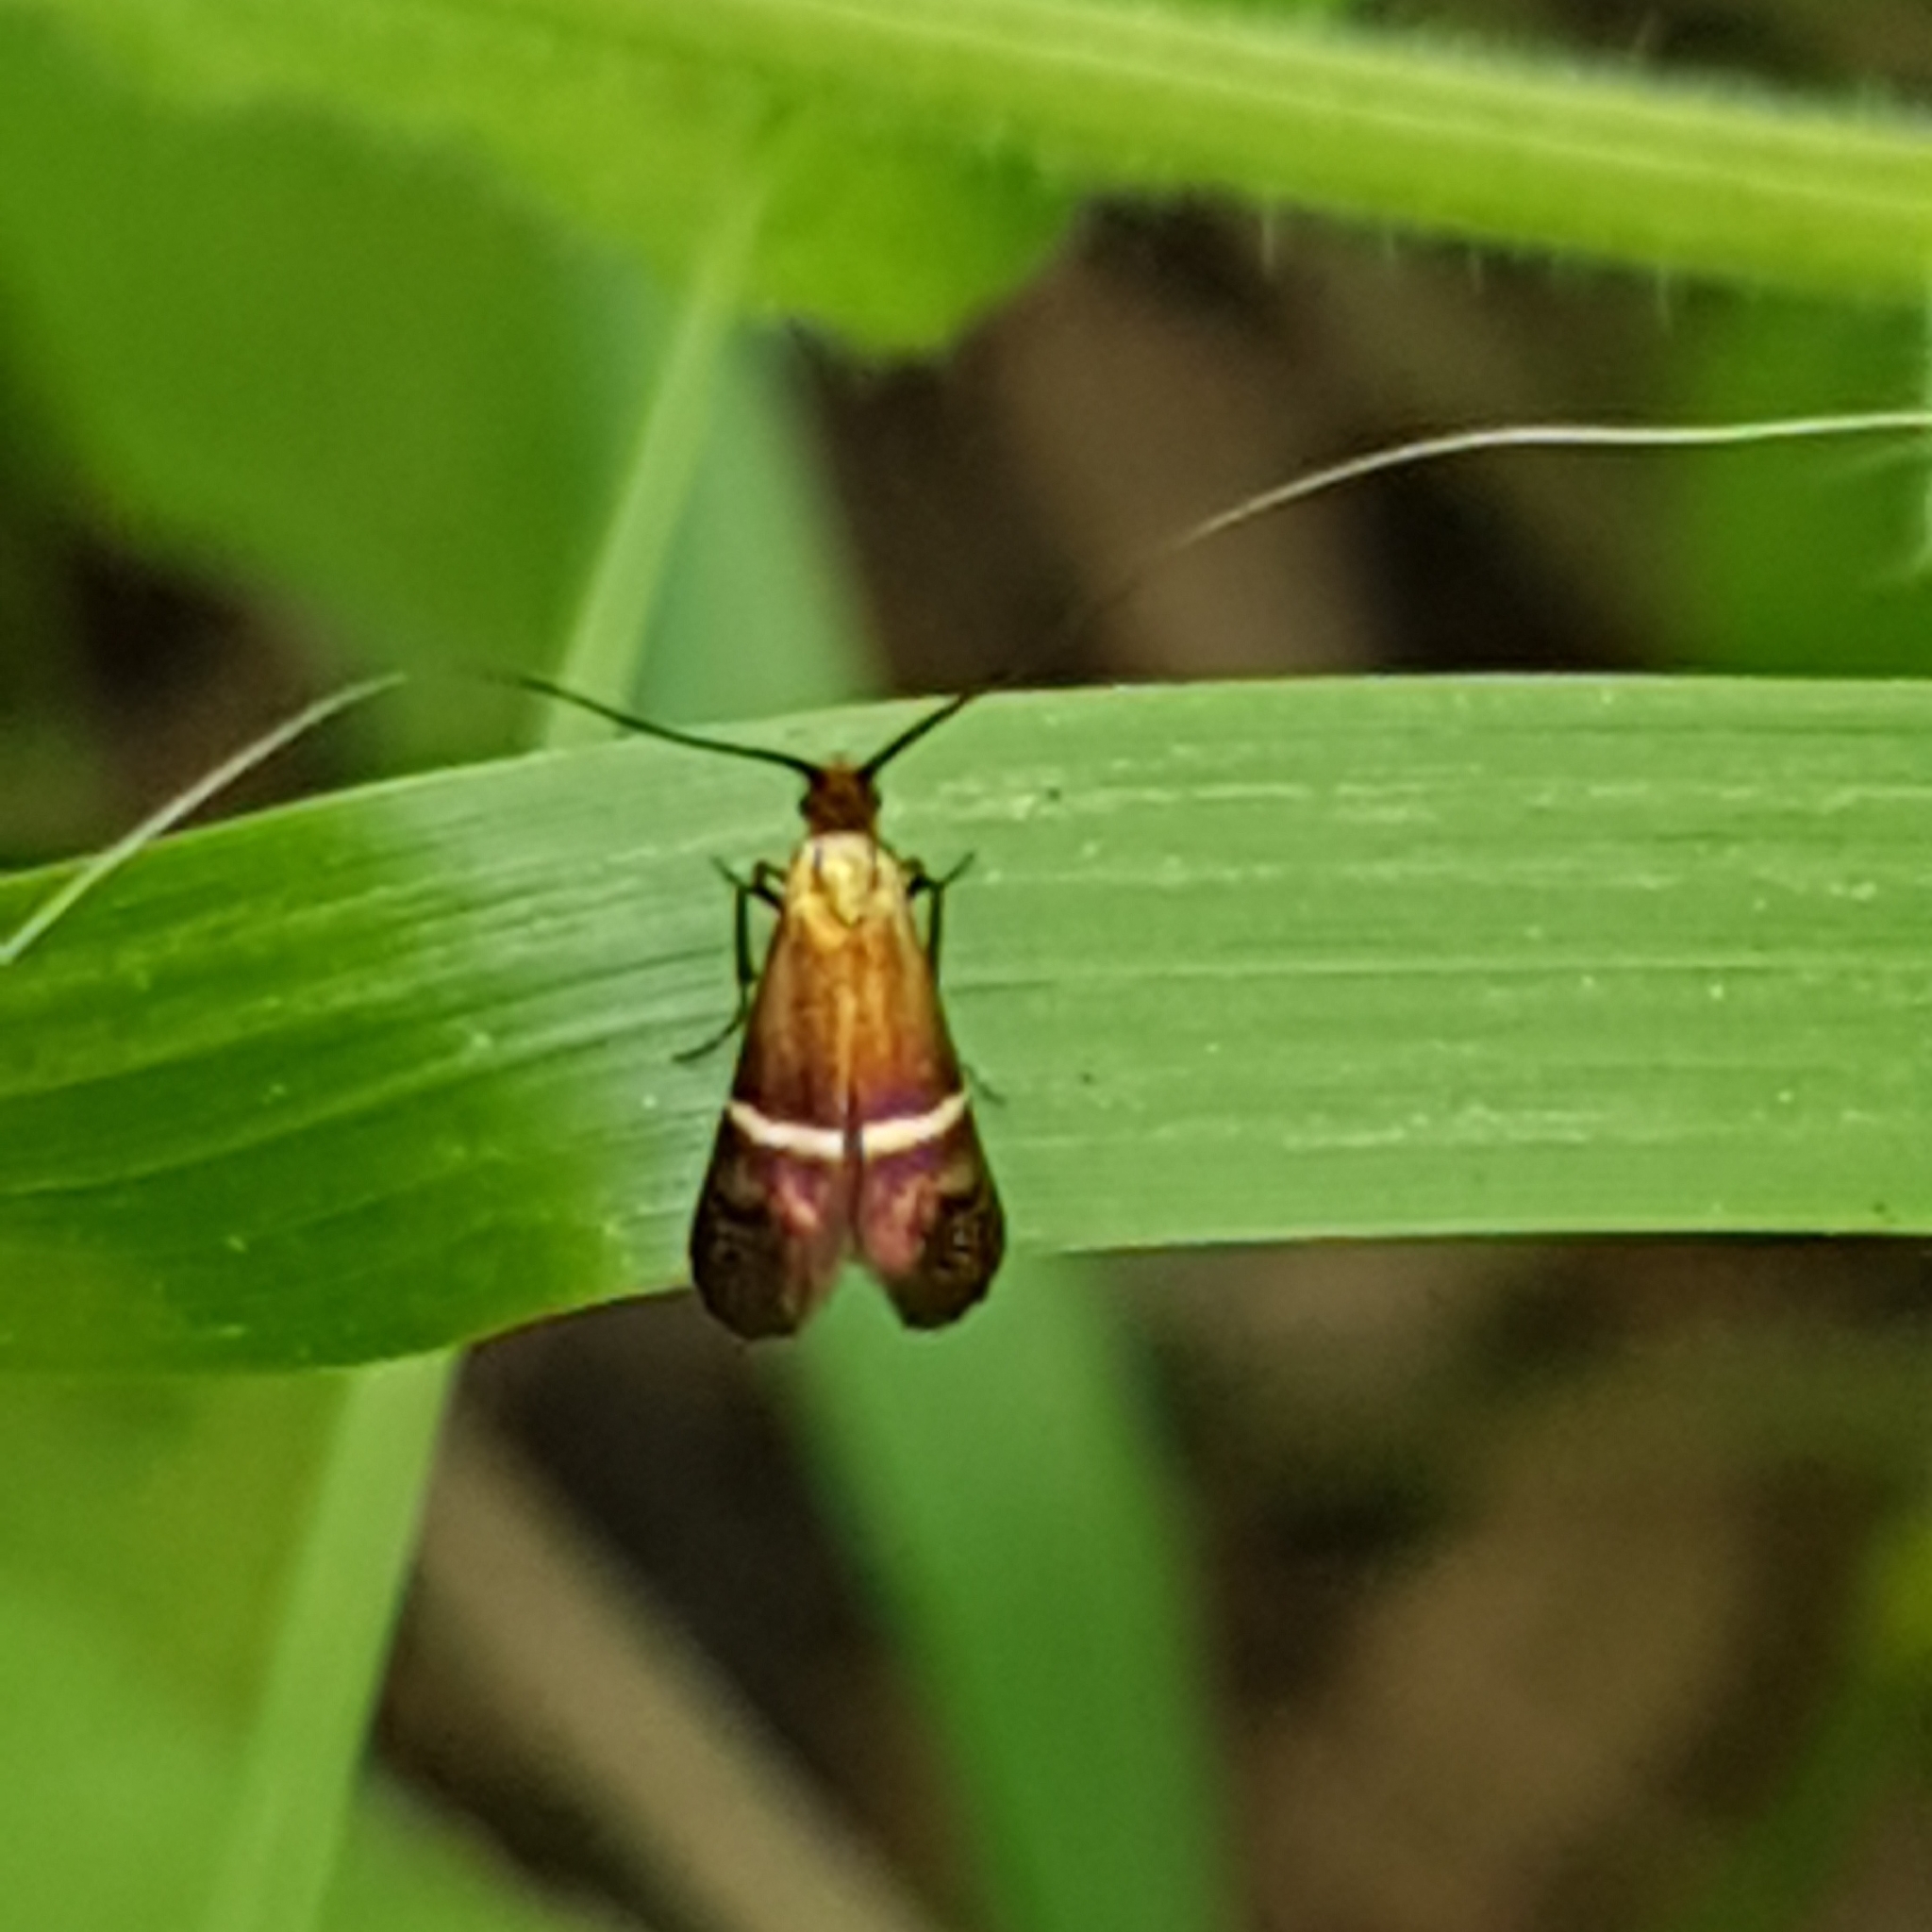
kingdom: Animalia
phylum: Arthropoda
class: Insecta
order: Lepidoptera
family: Adelidae
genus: Adela
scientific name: Adela australis
